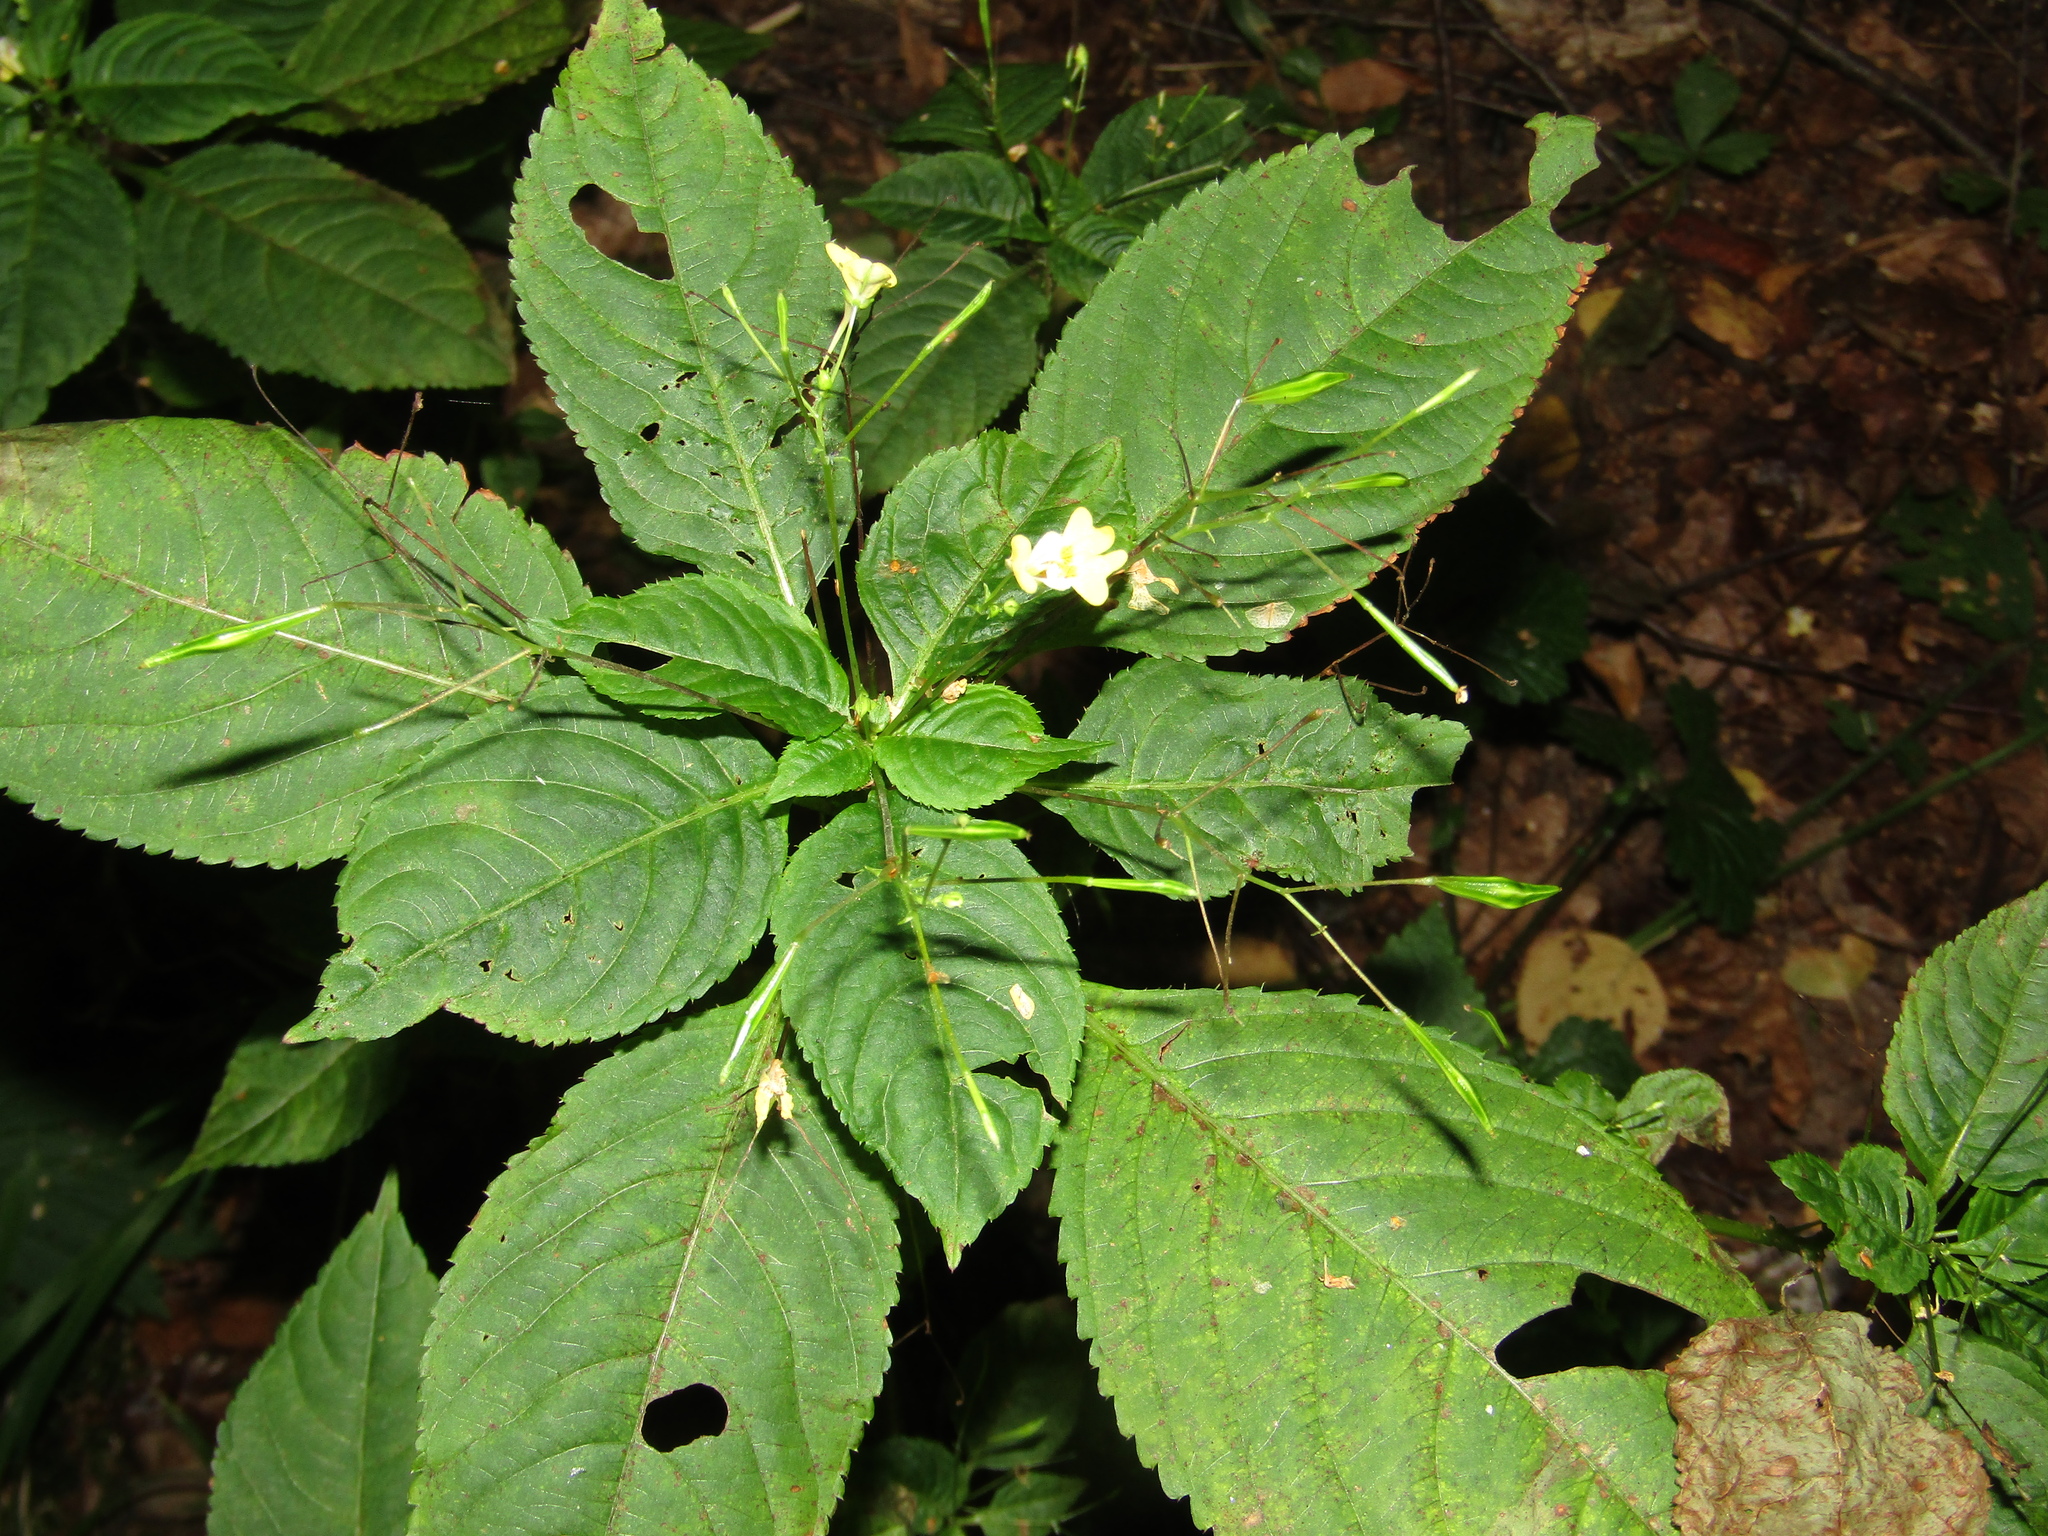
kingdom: Plantae
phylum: Tracheophyta
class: Magnoliopsida
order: Ericales
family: Balsaminaceae
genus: Impatiens
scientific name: Impatiens parviflora
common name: Small balsam
